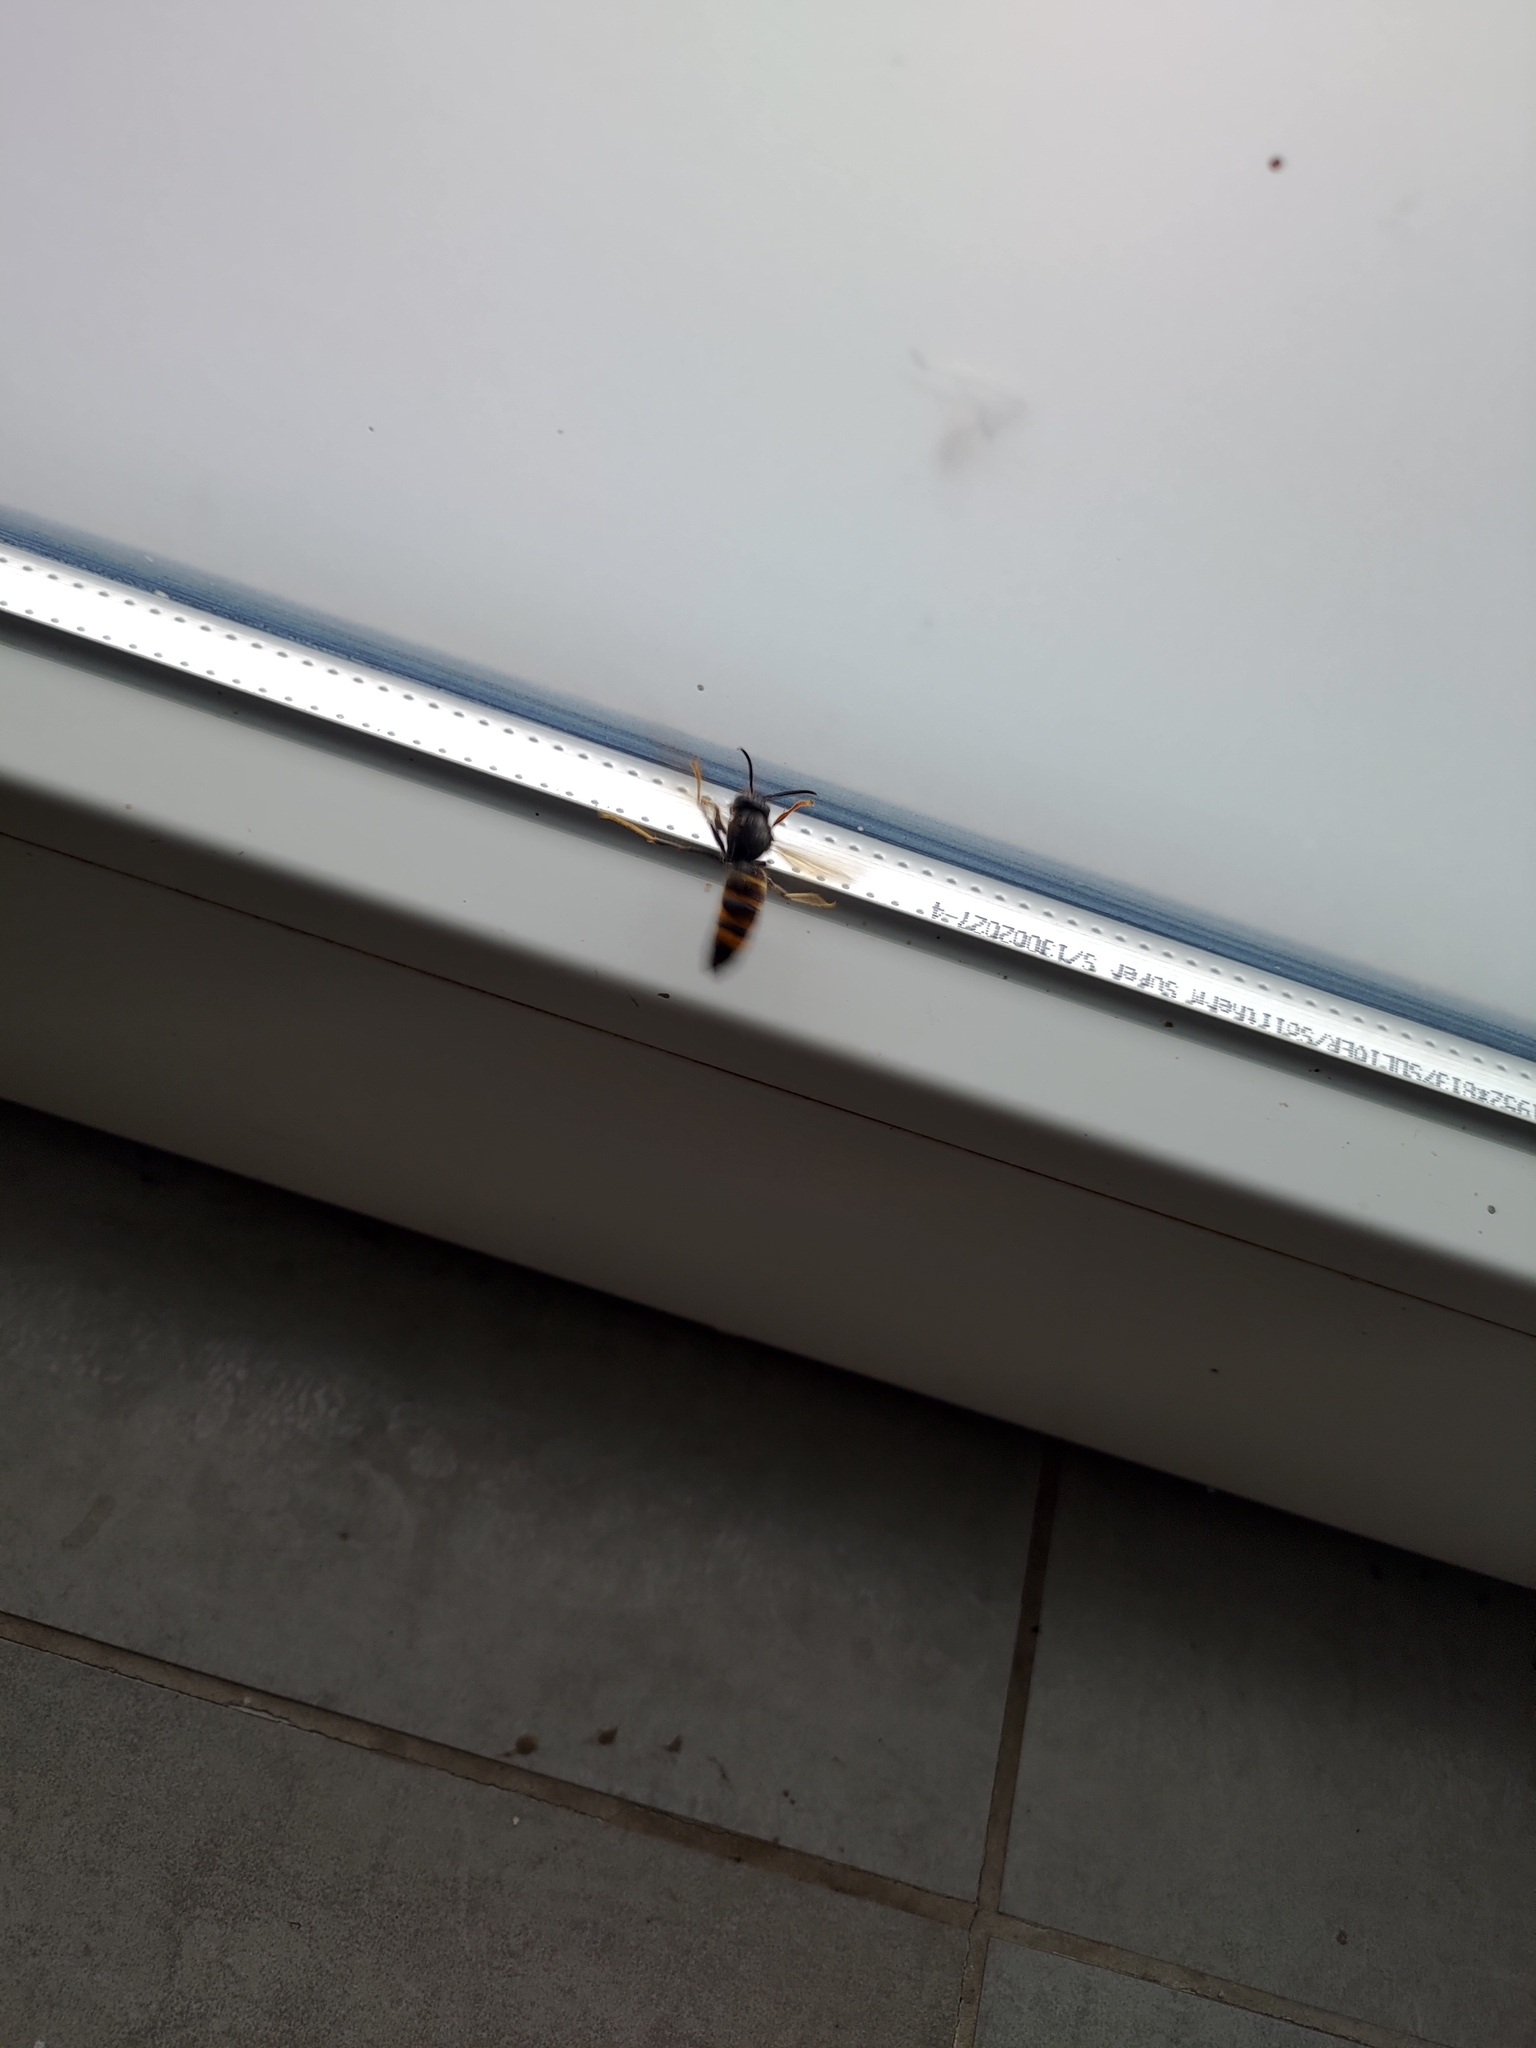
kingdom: Animalia
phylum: Arthropoda
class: Insecta
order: Hymenoptera
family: Vespidae
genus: Vespa
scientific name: Vespa velutina
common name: Asian hornet
